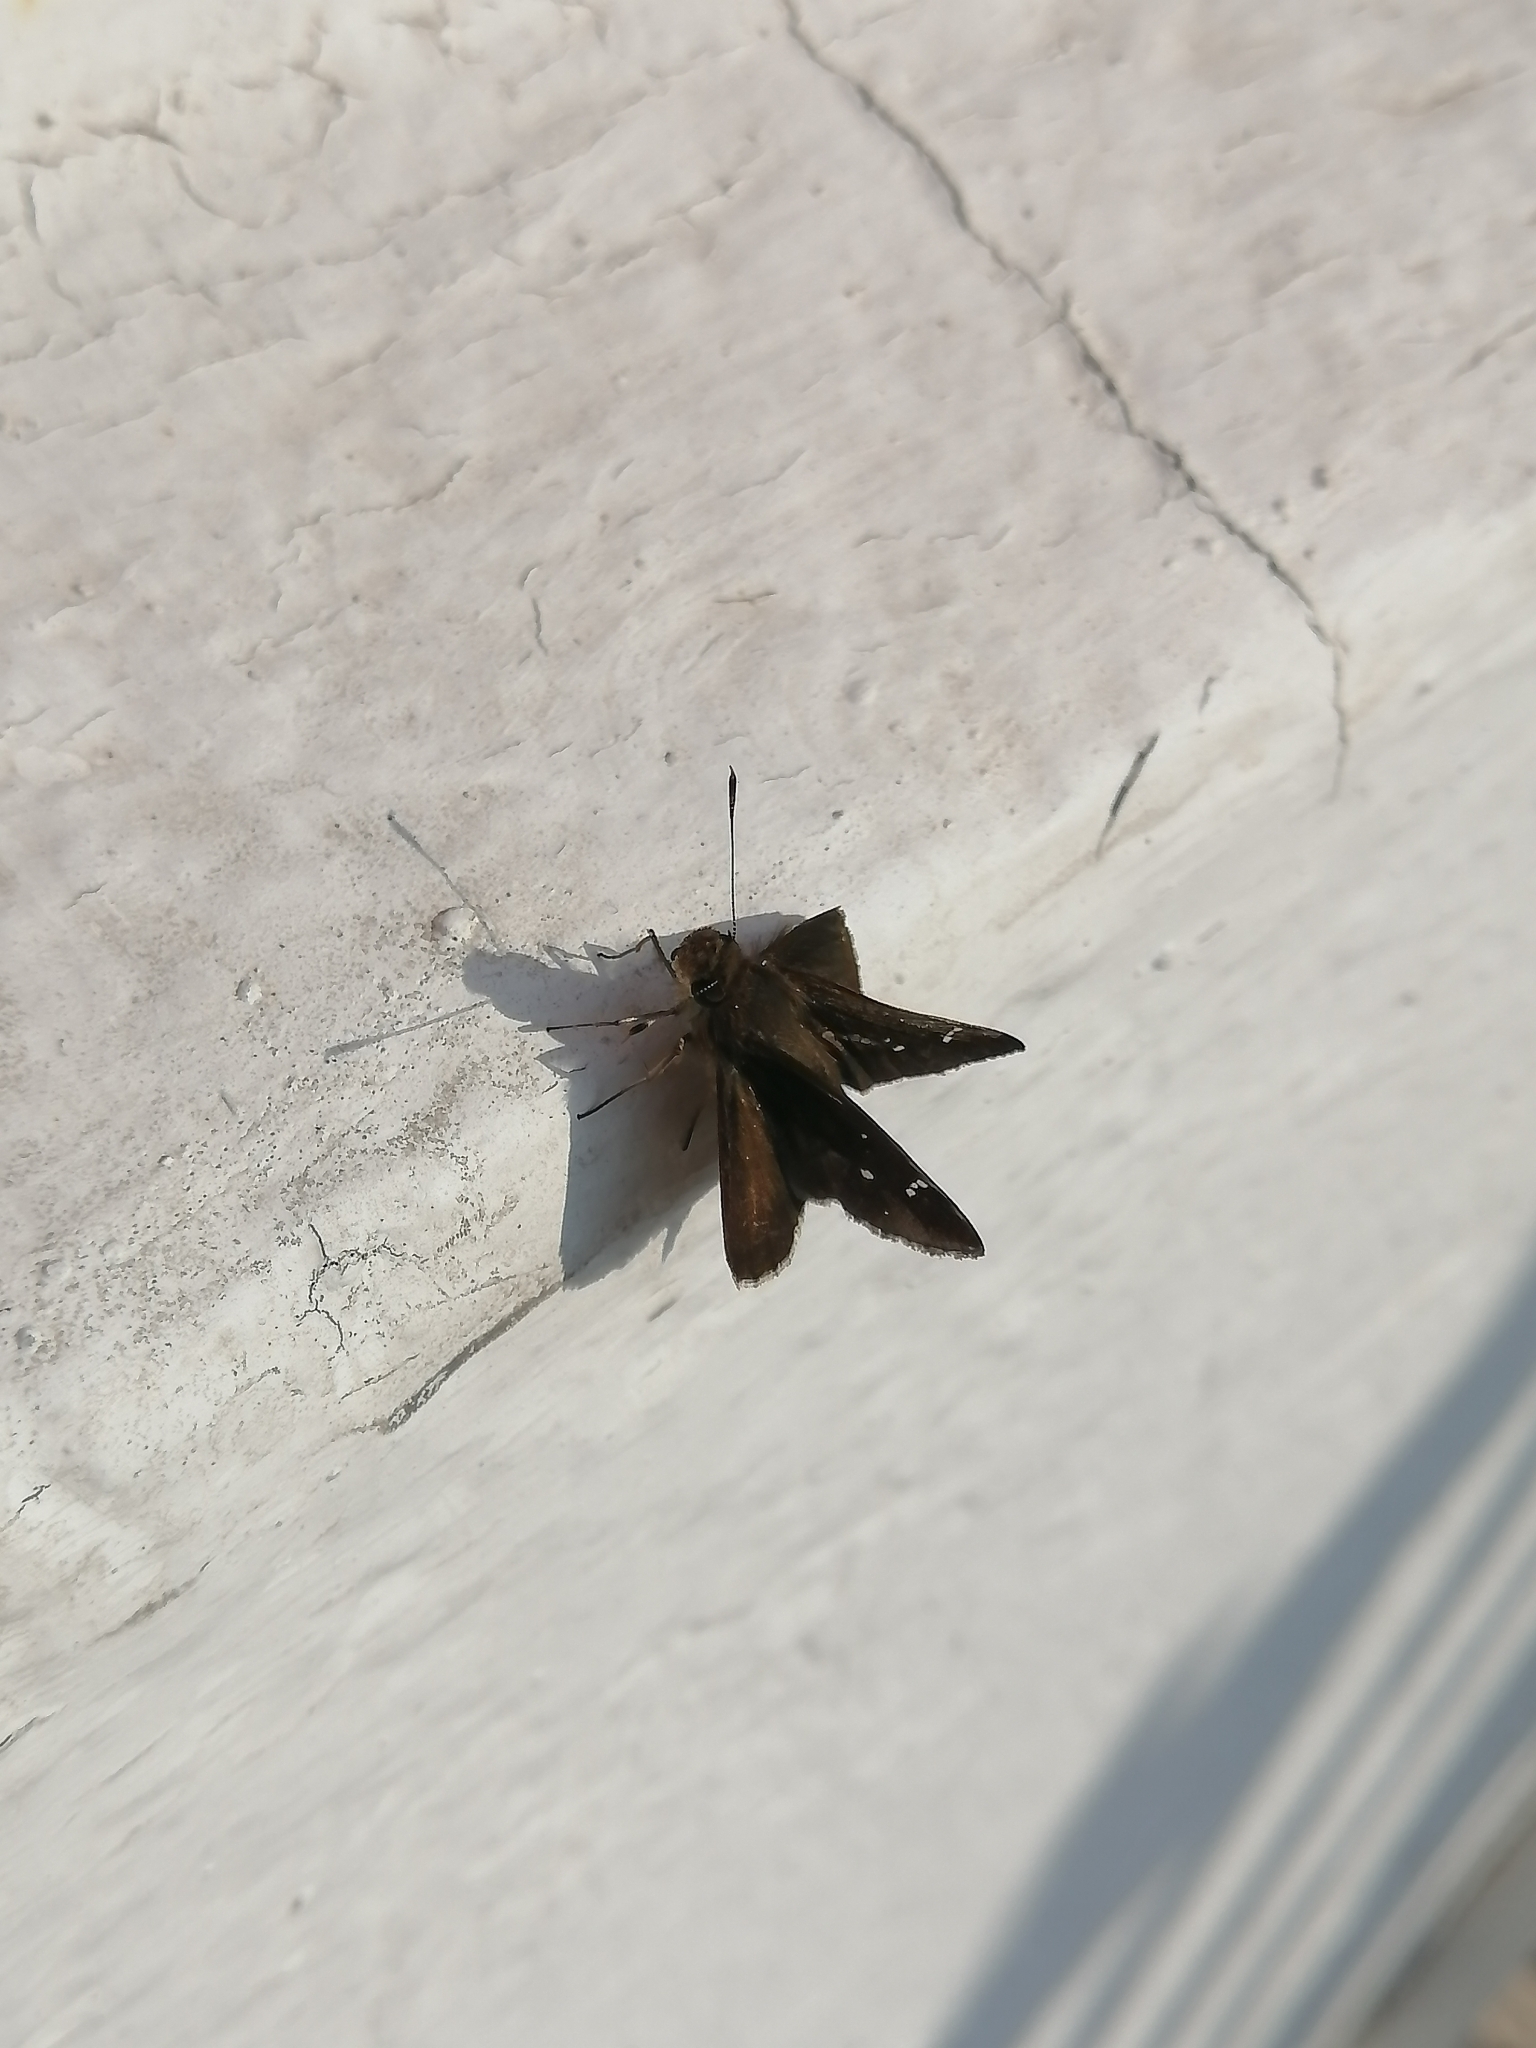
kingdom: Animalia
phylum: Arthropoda
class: Insecta
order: Lepidoptera
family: Hesperiidae
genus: Lerema
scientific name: Lerema accius
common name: Clouded skipper
